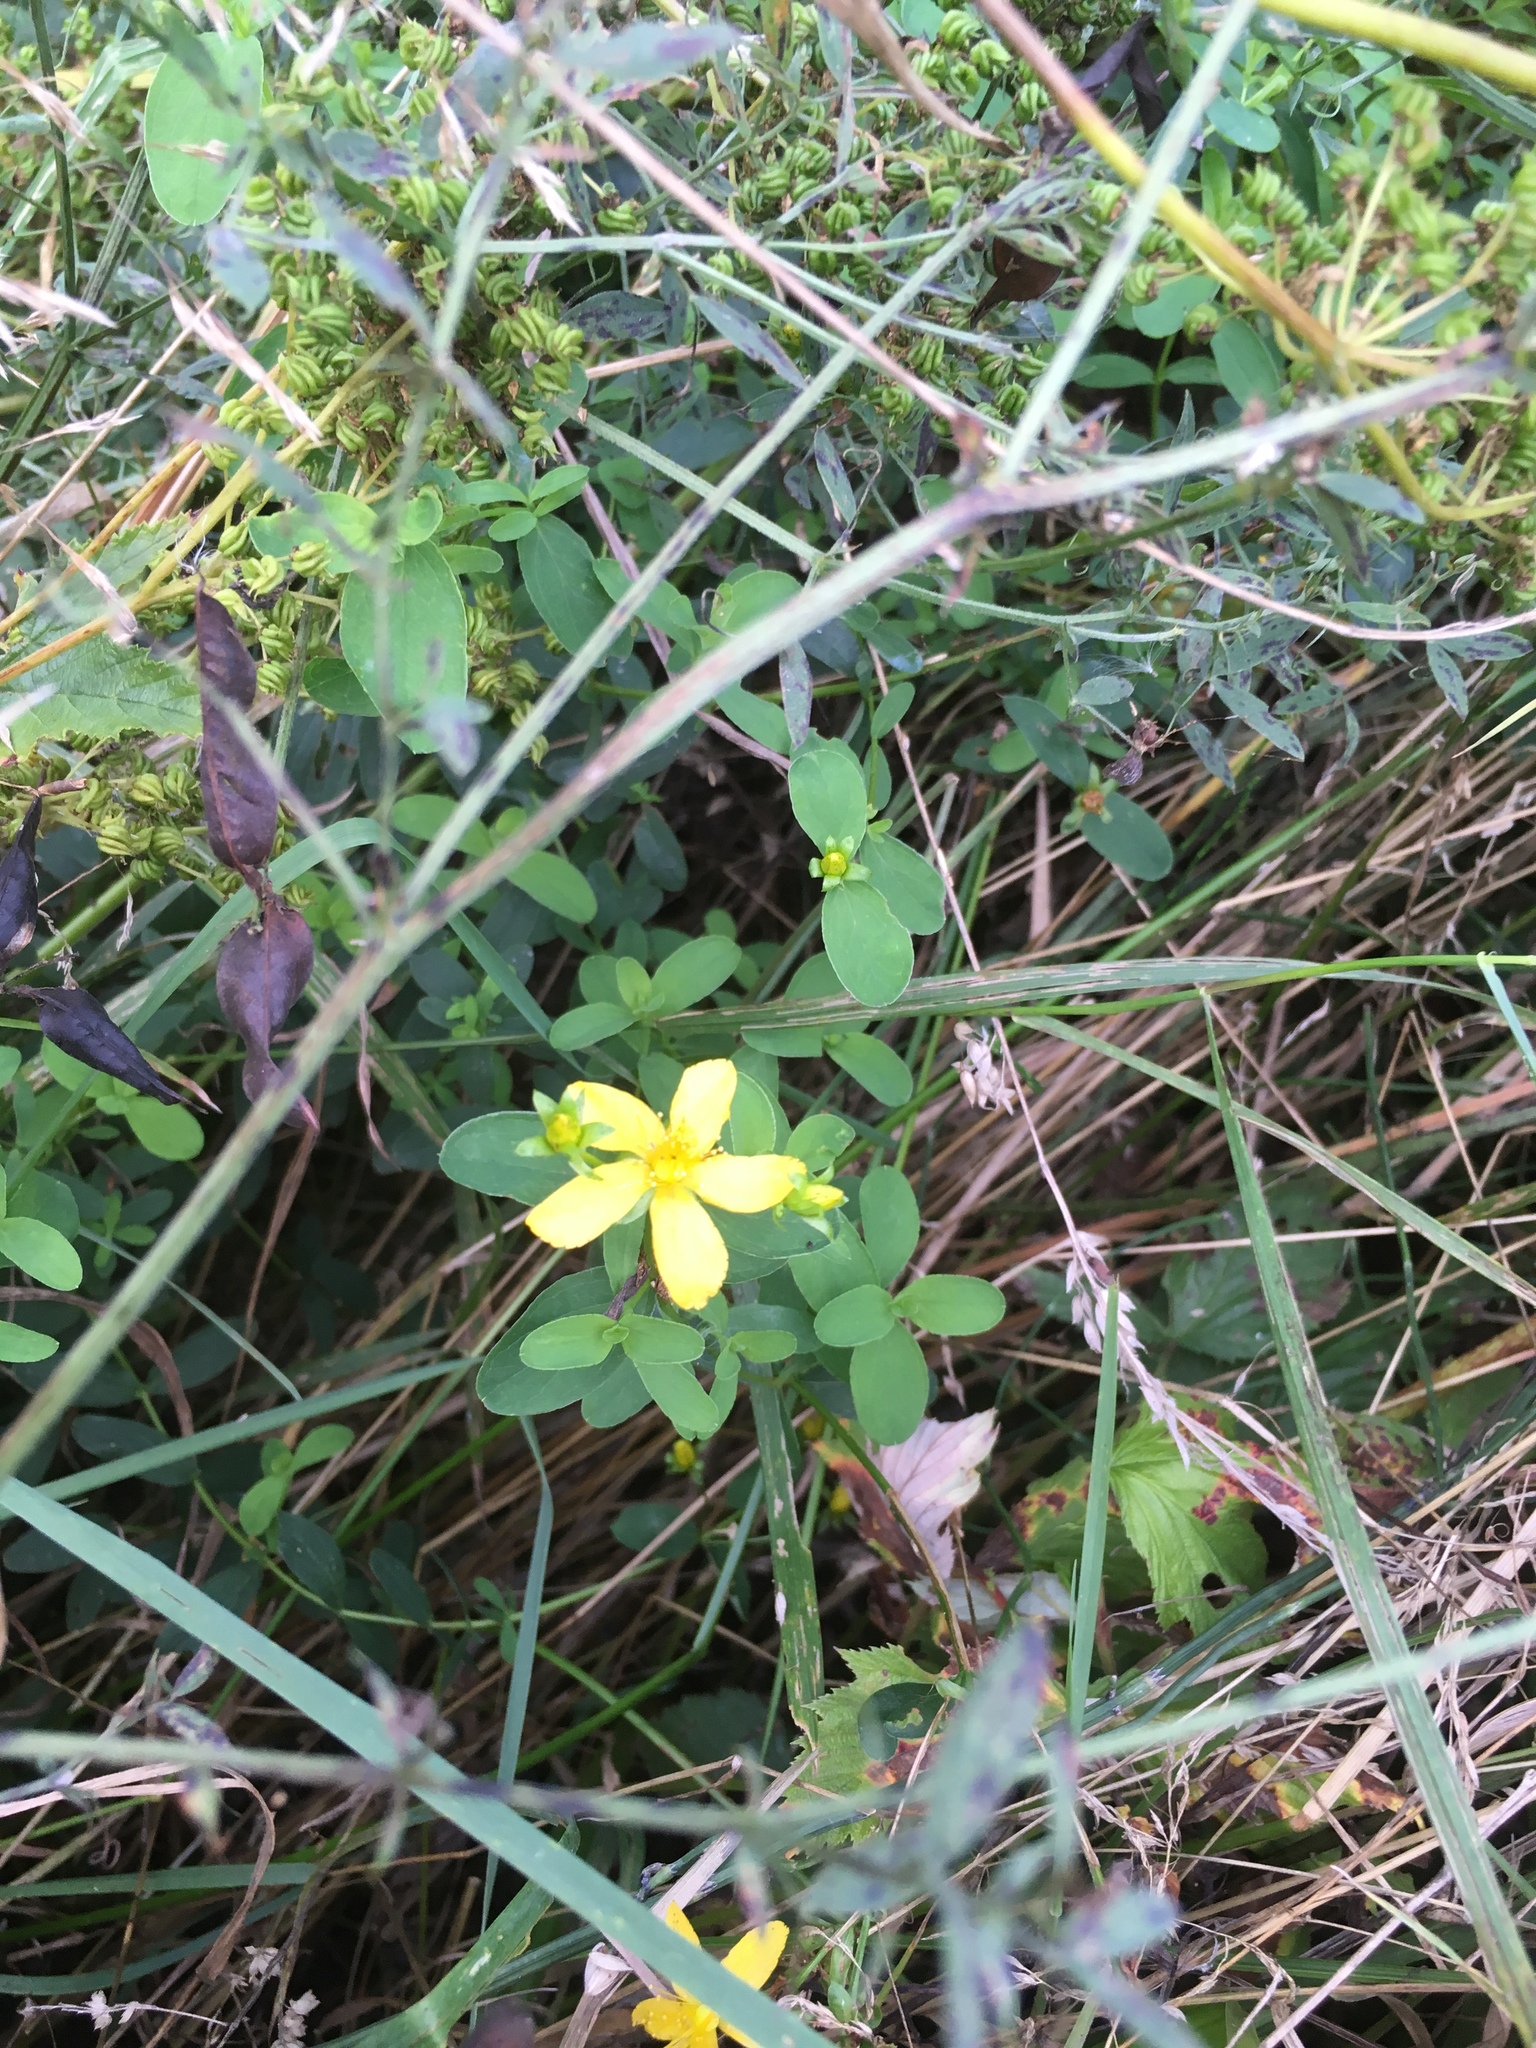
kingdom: Plantae
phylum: Tracheophyta
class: Magnoliopsida
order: Malpighiales
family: Hypericaceae
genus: Hypericum
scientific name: Hypericum perforatum
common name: Common st. johnswort
